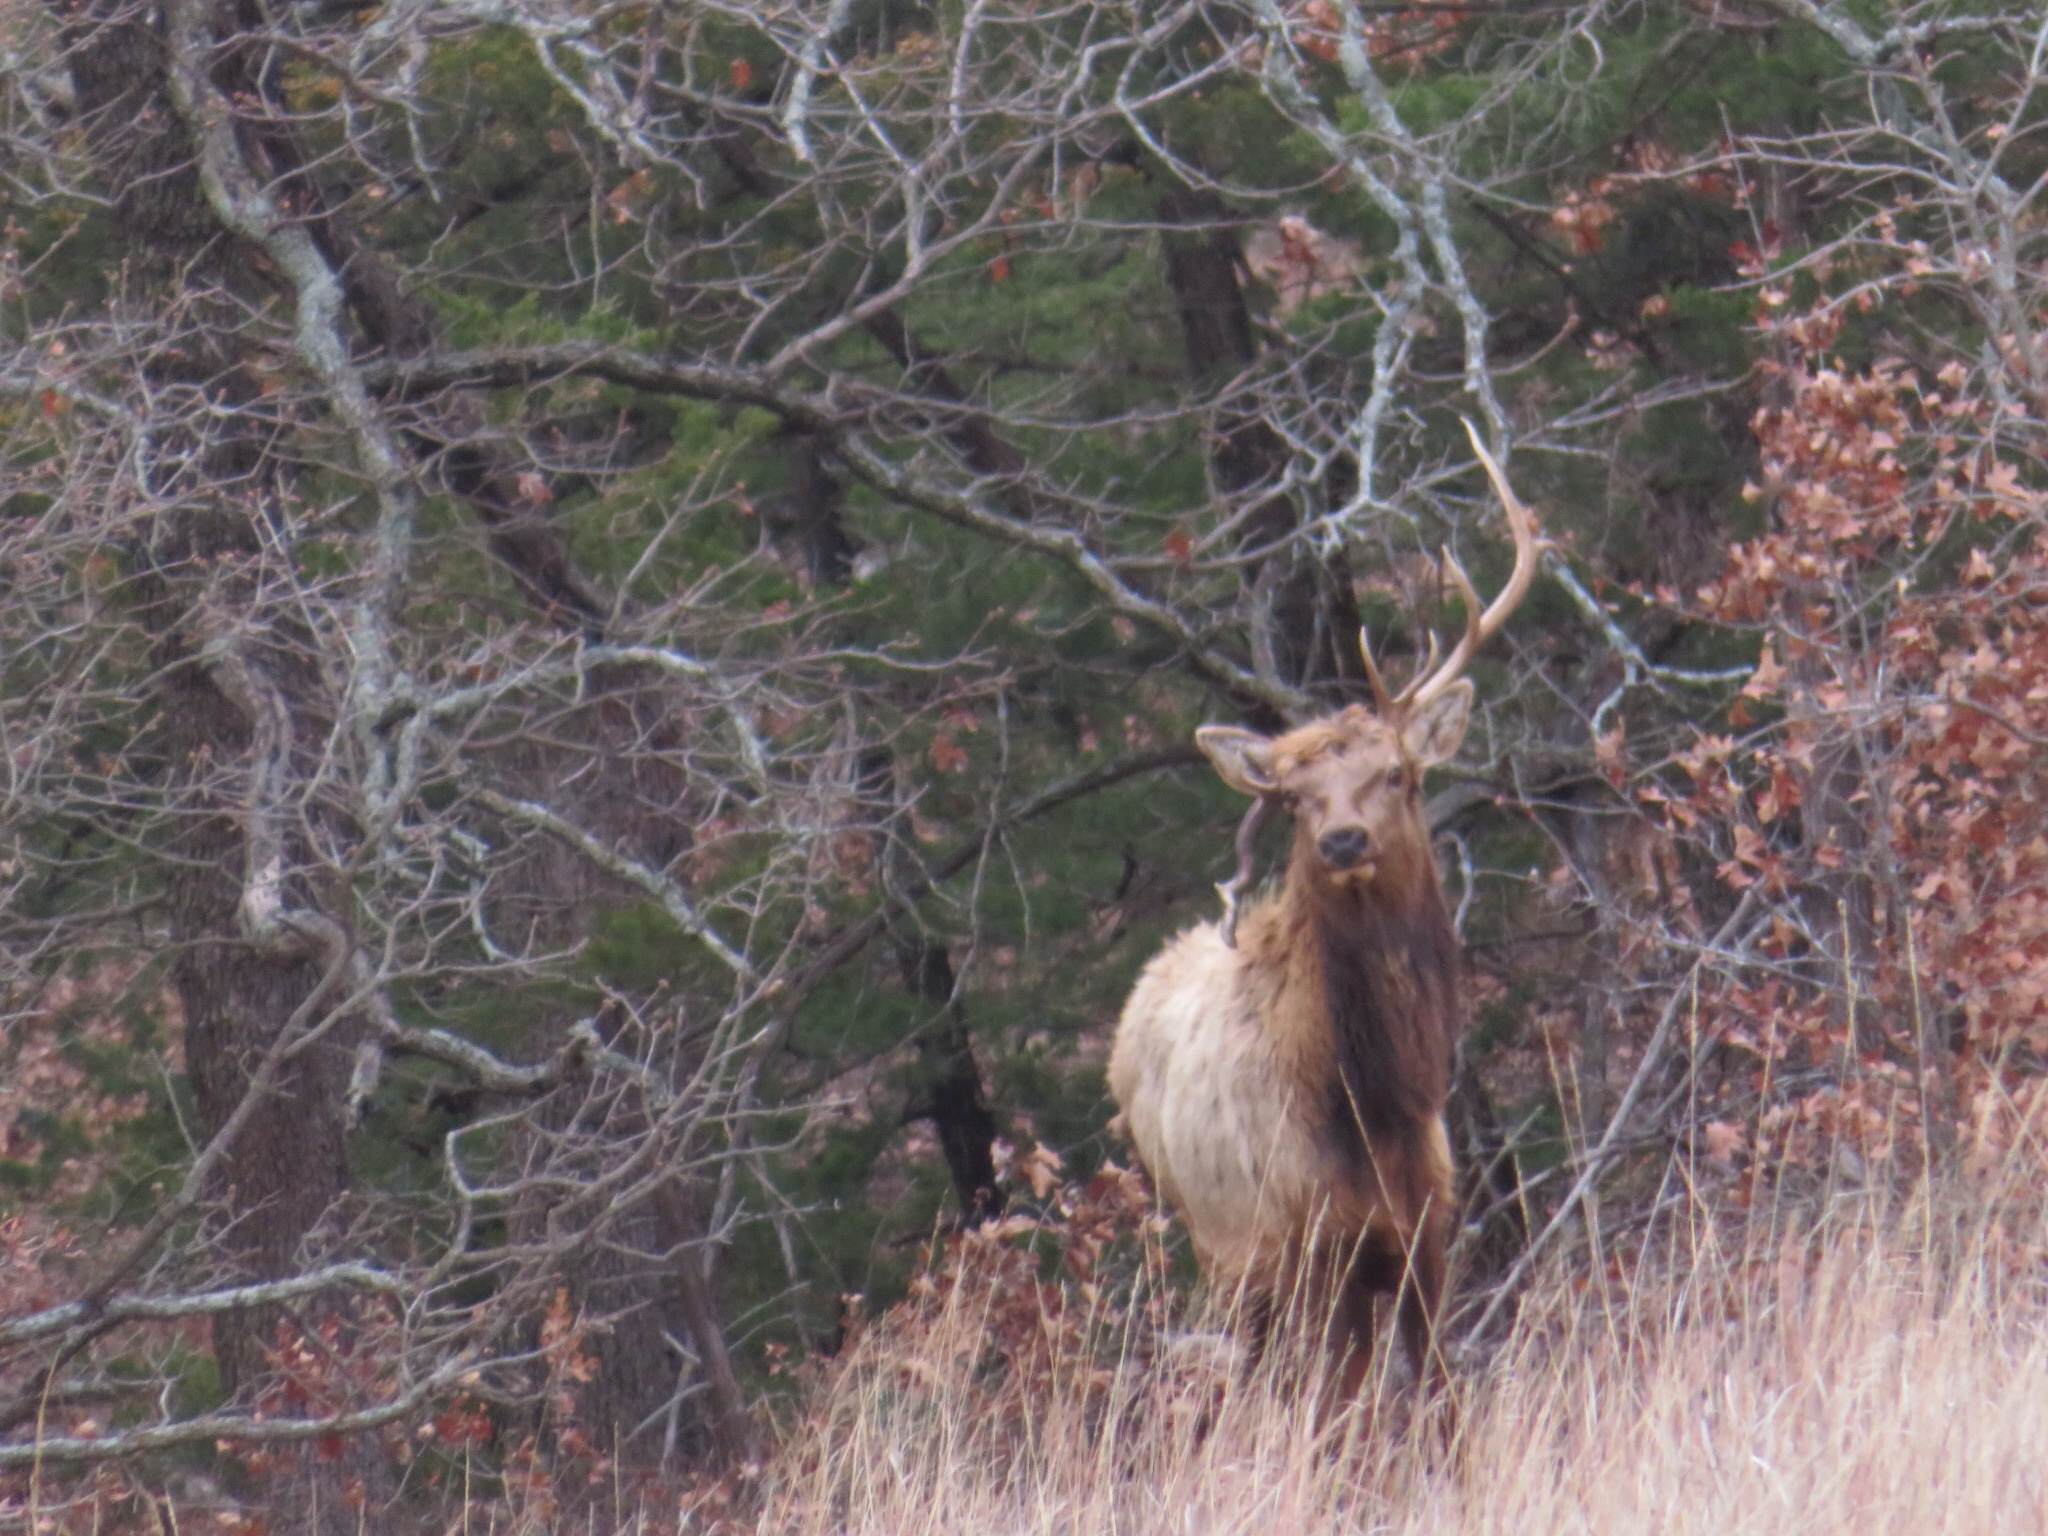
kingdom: Animalia
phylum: Chordata
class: Mammalia
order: Artiodactyla
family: Cervidae
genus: Cervus
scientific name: Cervus elaphus
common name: Red deer
